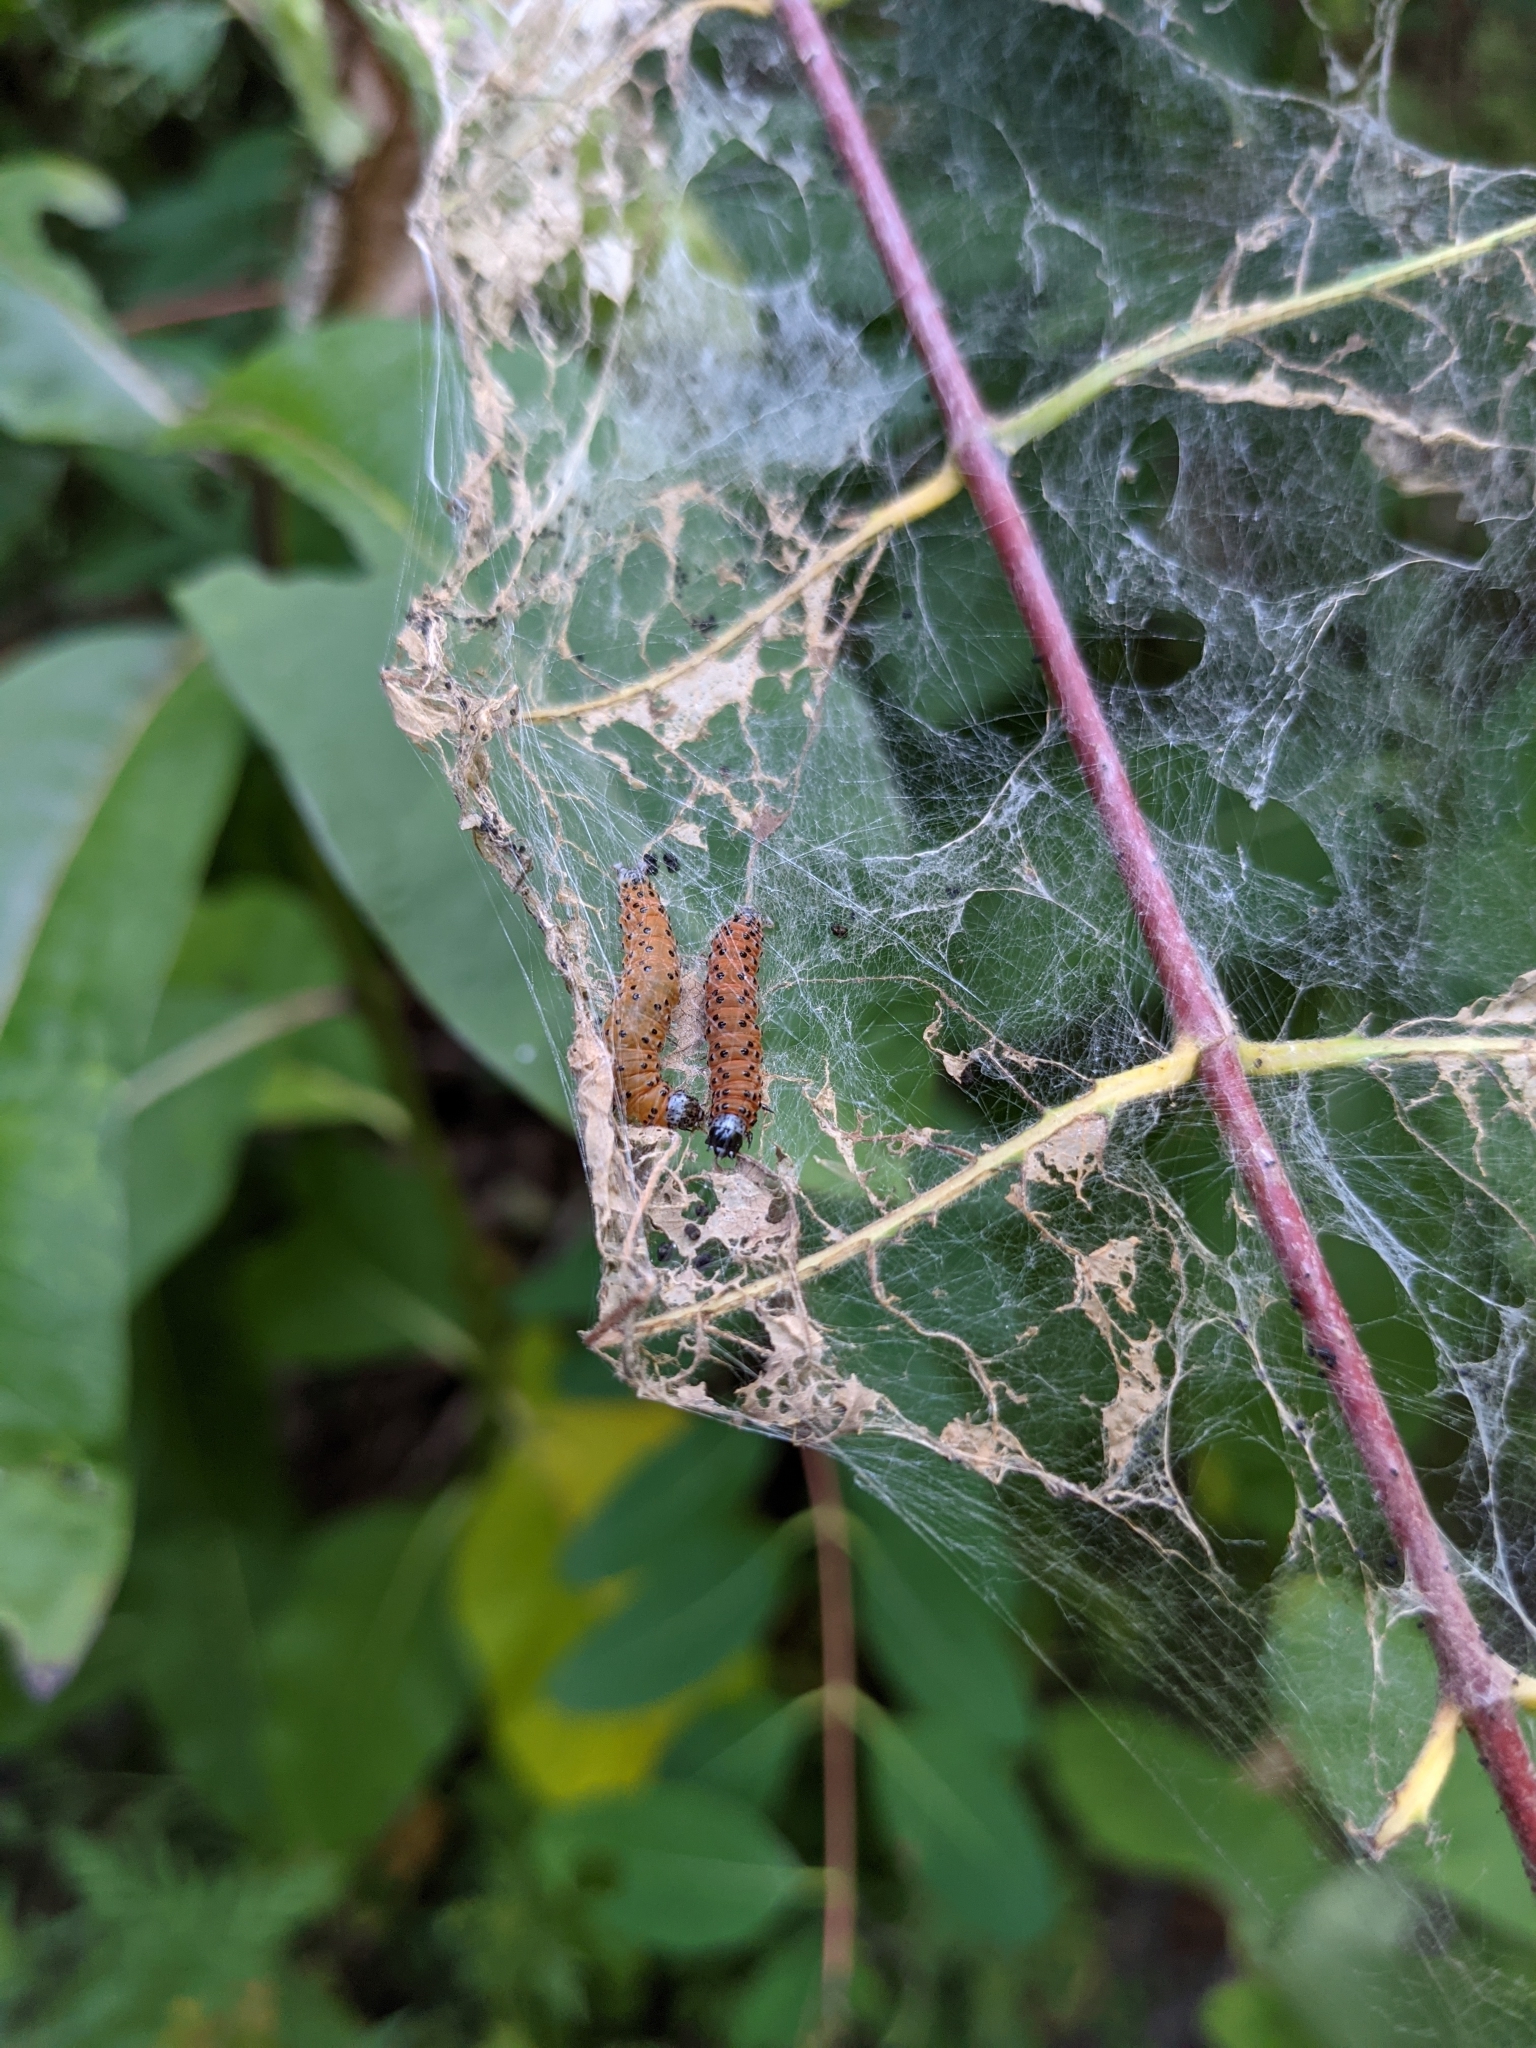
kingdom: Animalia
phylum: Arthropoda
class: Insecta
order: Lepidoptera
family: Crambidae
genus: Saucrobotys
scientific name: Saucrobotys futilalis
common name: Dogbane saucrobotys moth
